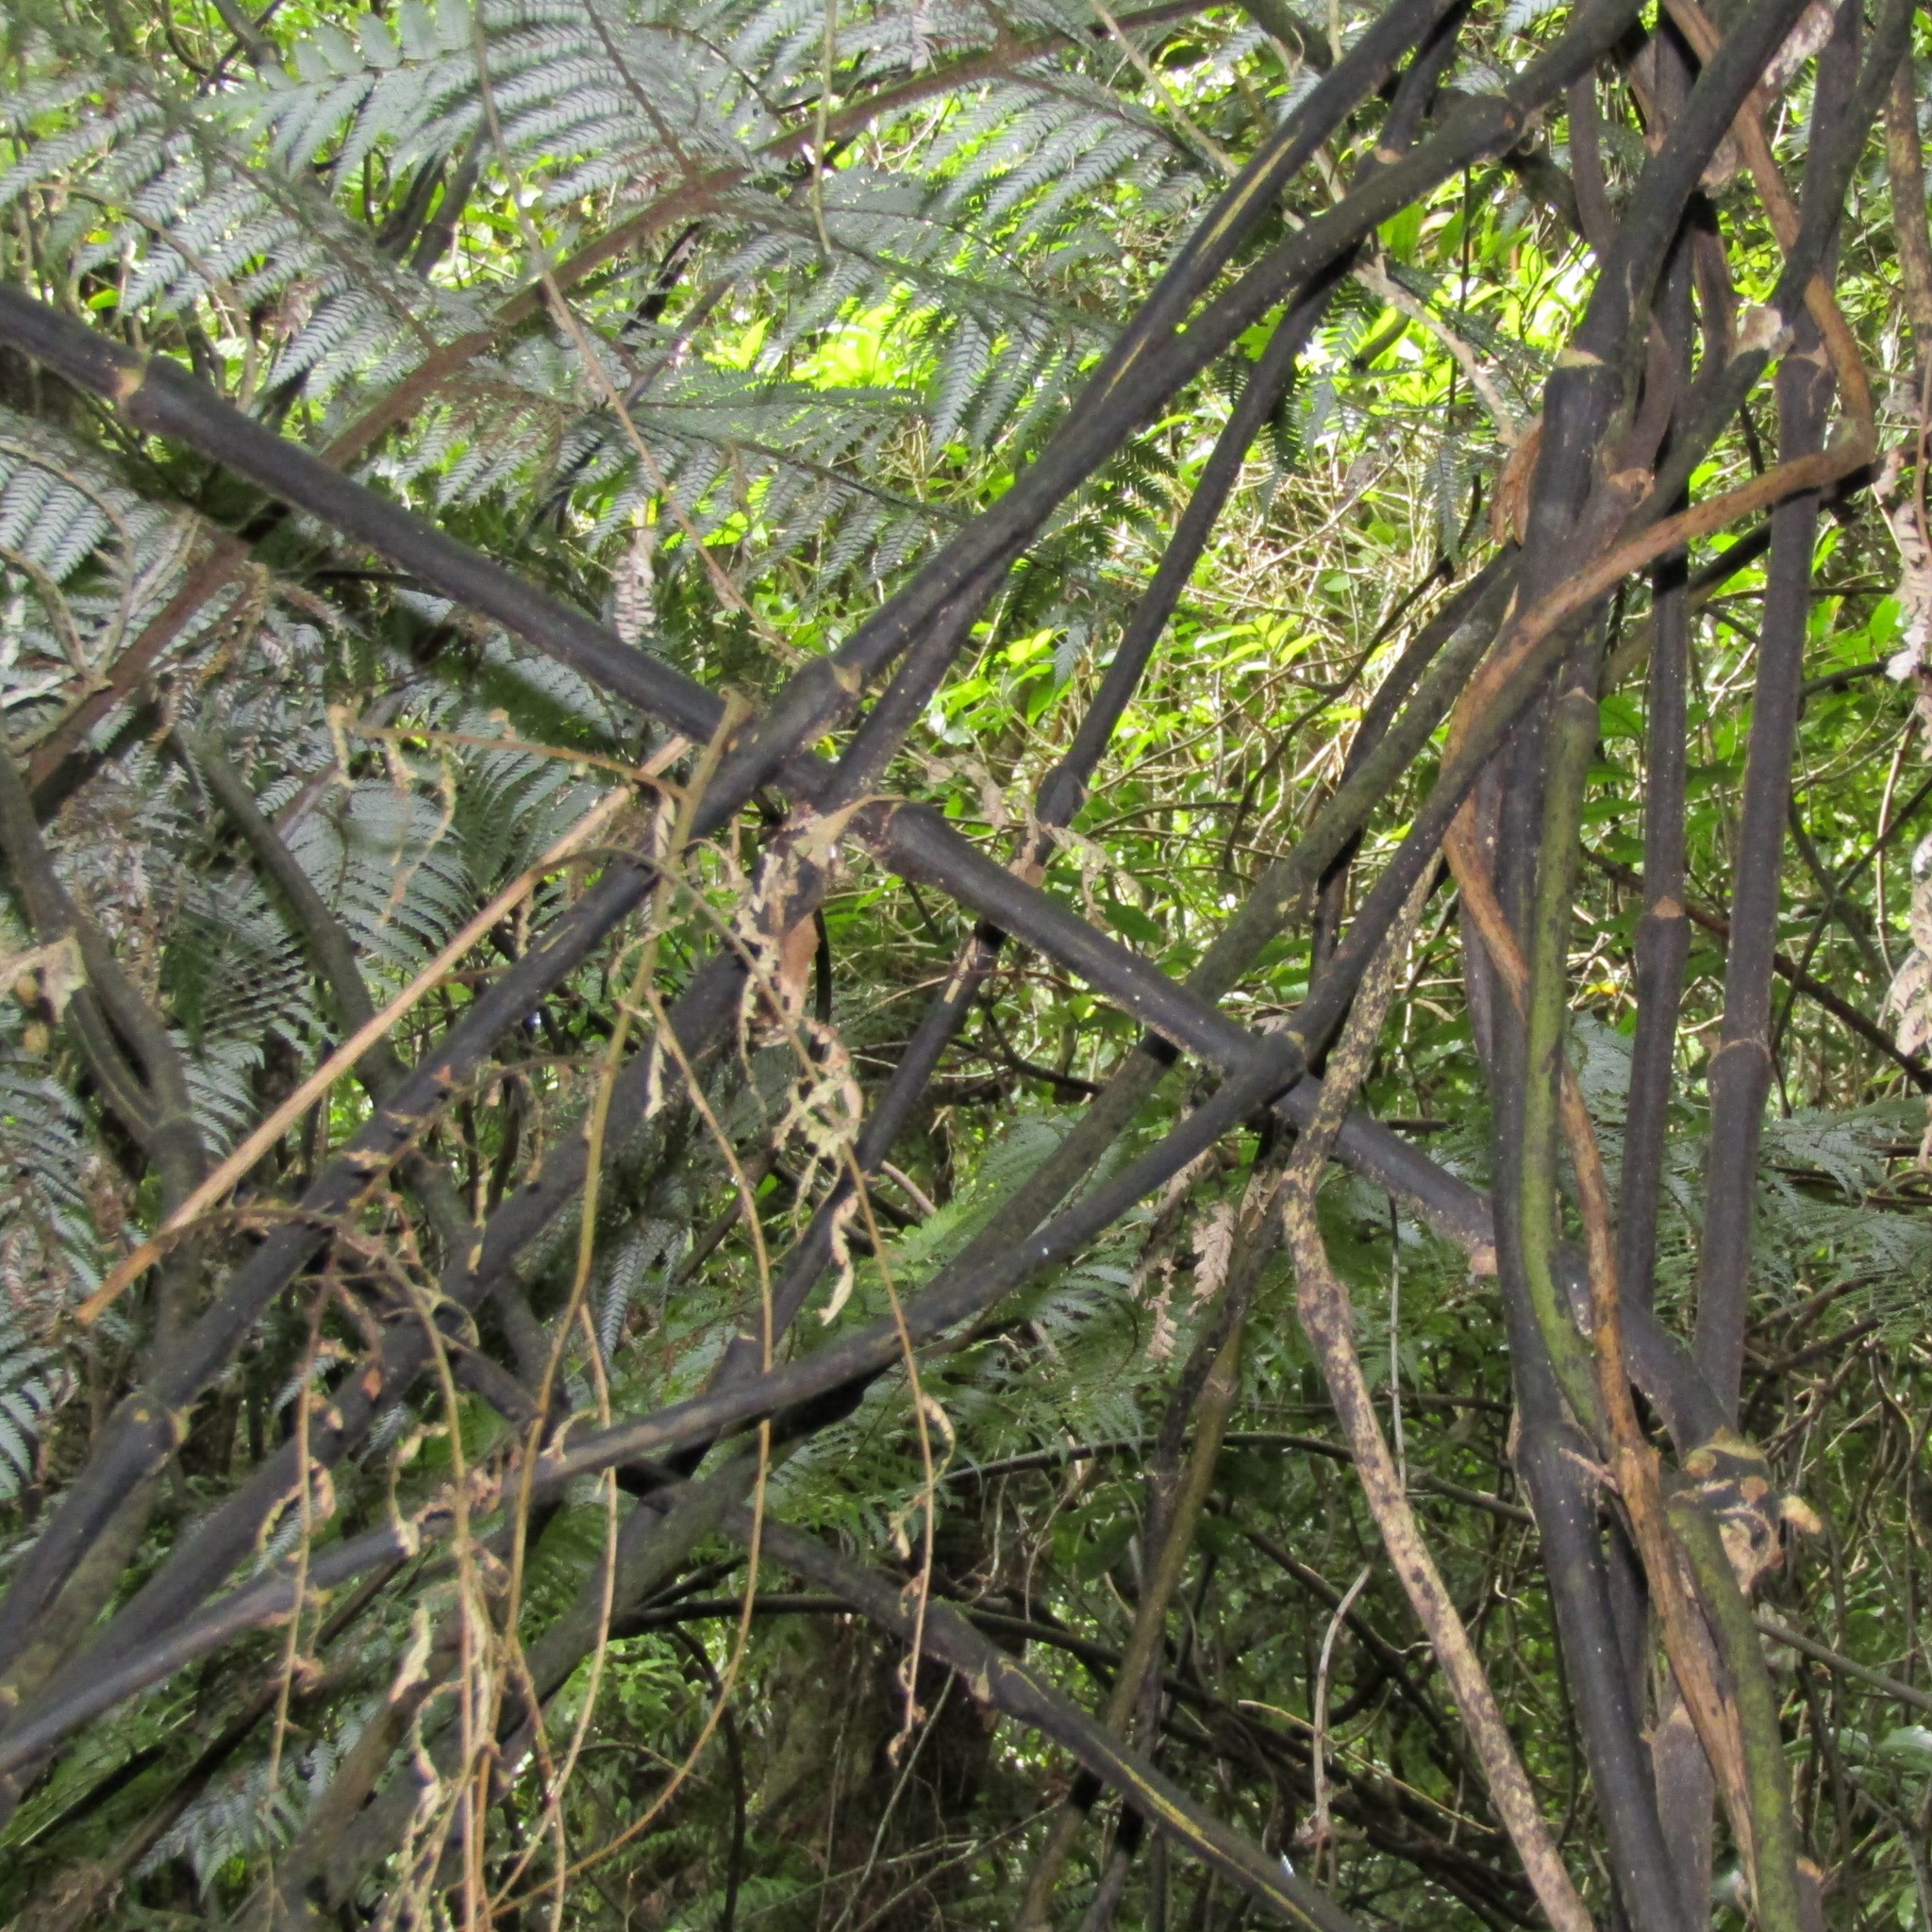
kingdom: Plantae
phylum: Tracheophyta
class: Liliopsida
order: Liliales
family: Ripogonaceae
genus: Ripogonum
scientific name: Ripogonum scandens
